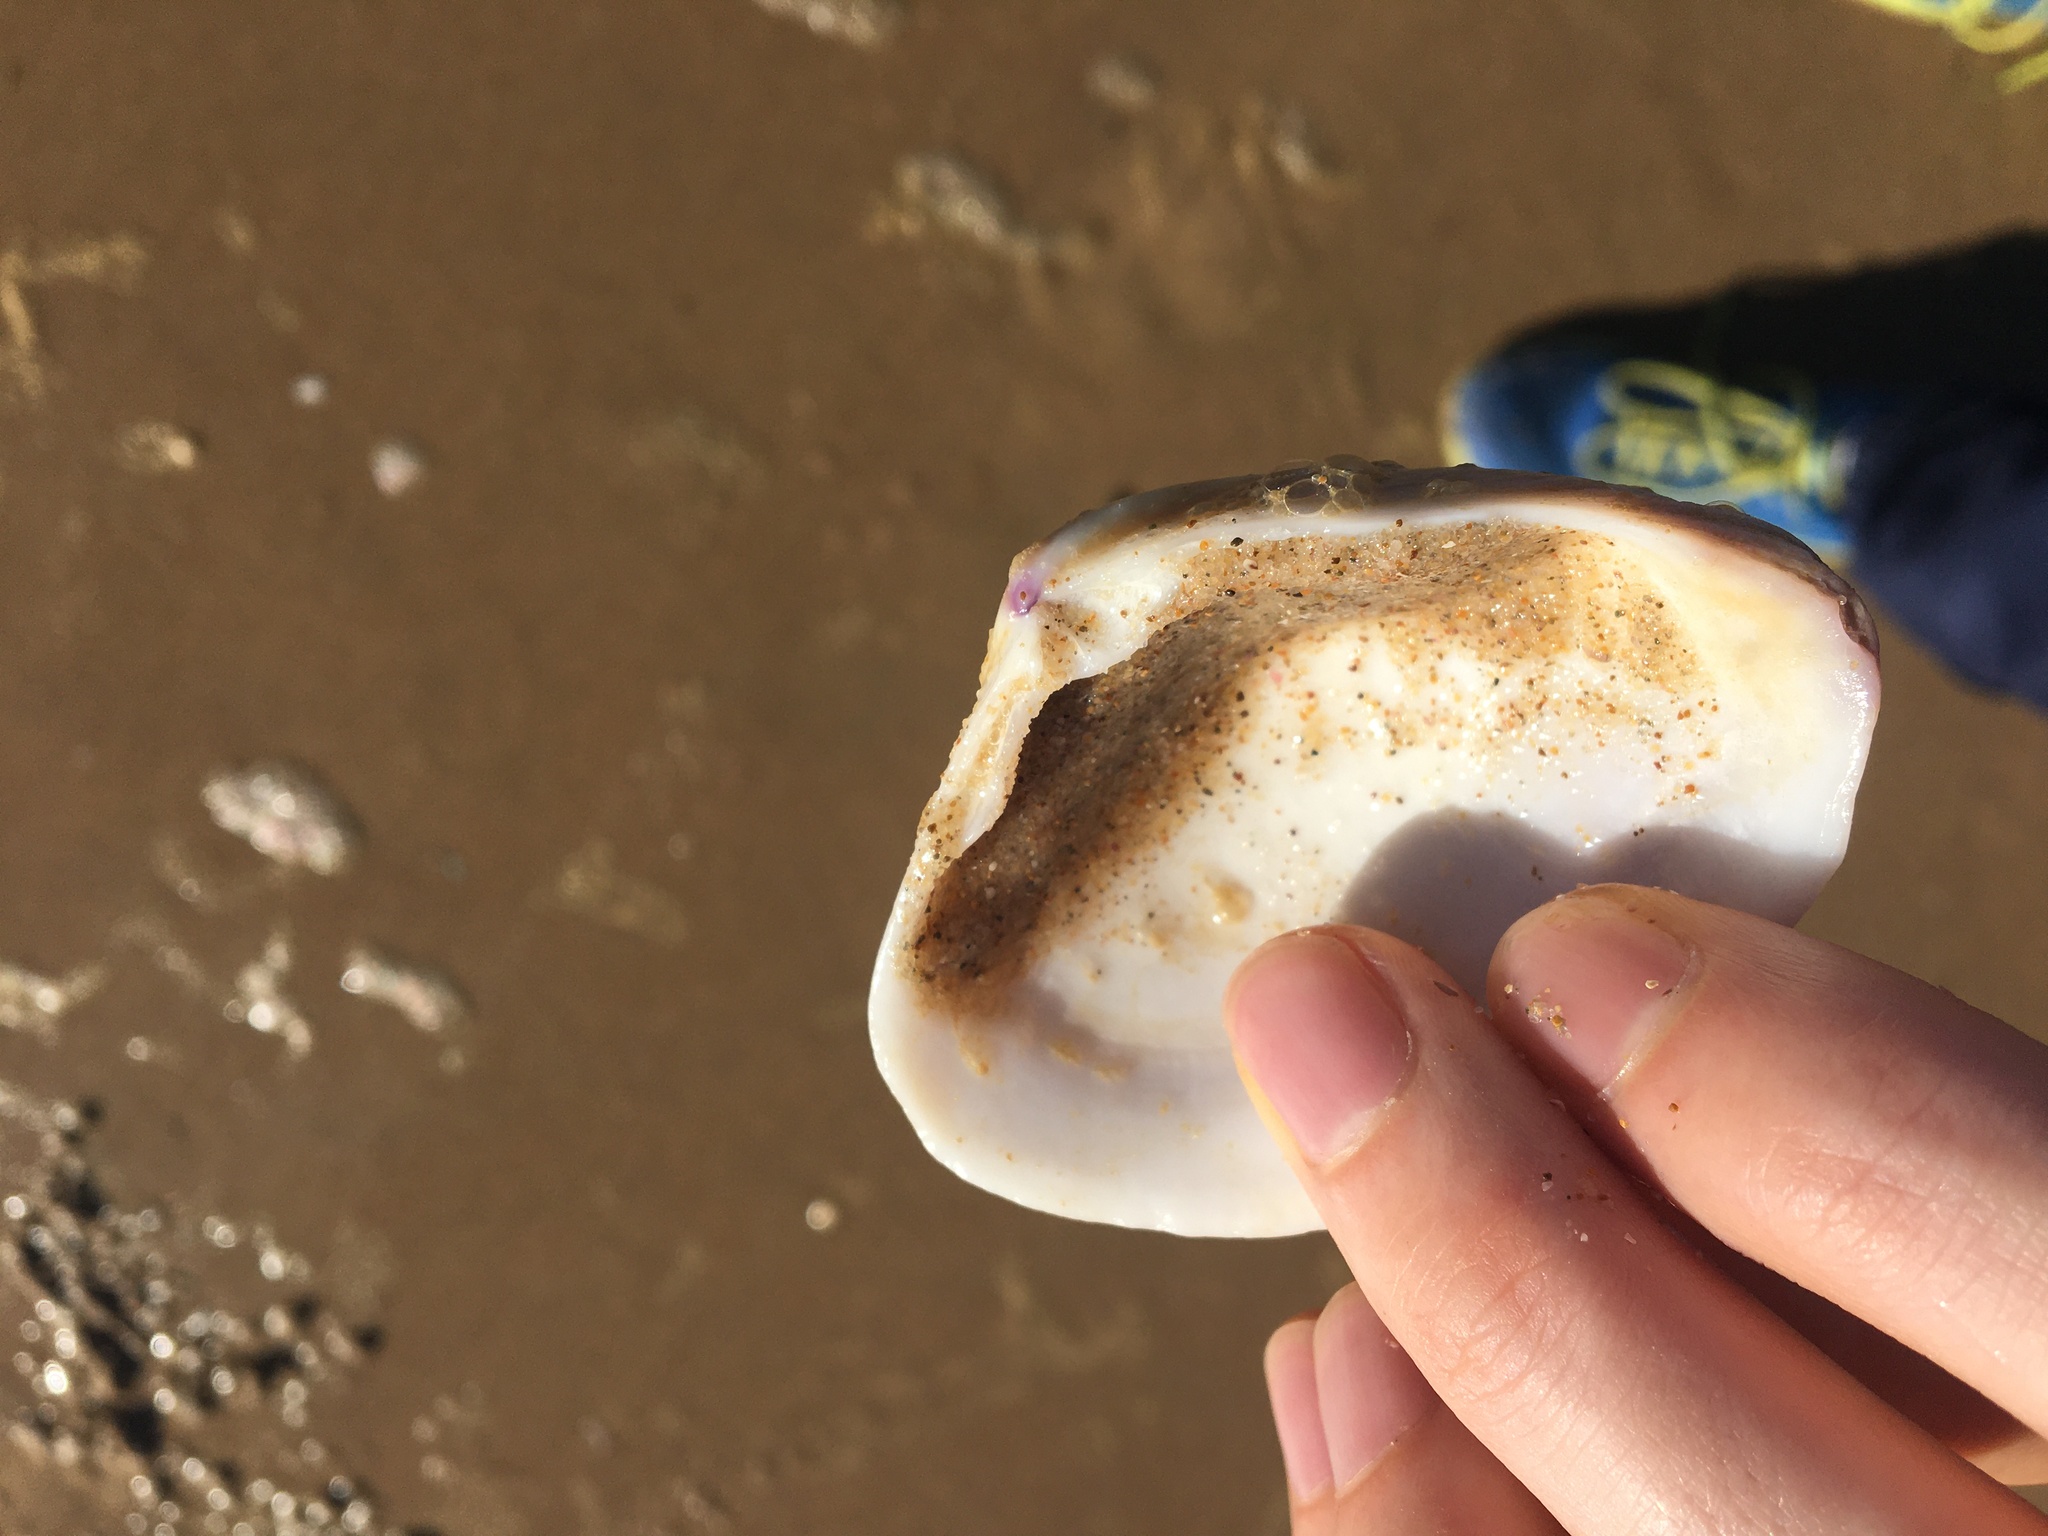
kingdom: Animalia
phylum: Mollusca
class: Bivalvia
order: Venerida
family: Mactridae
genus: Austromactra
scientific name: Austromactra rufescens
